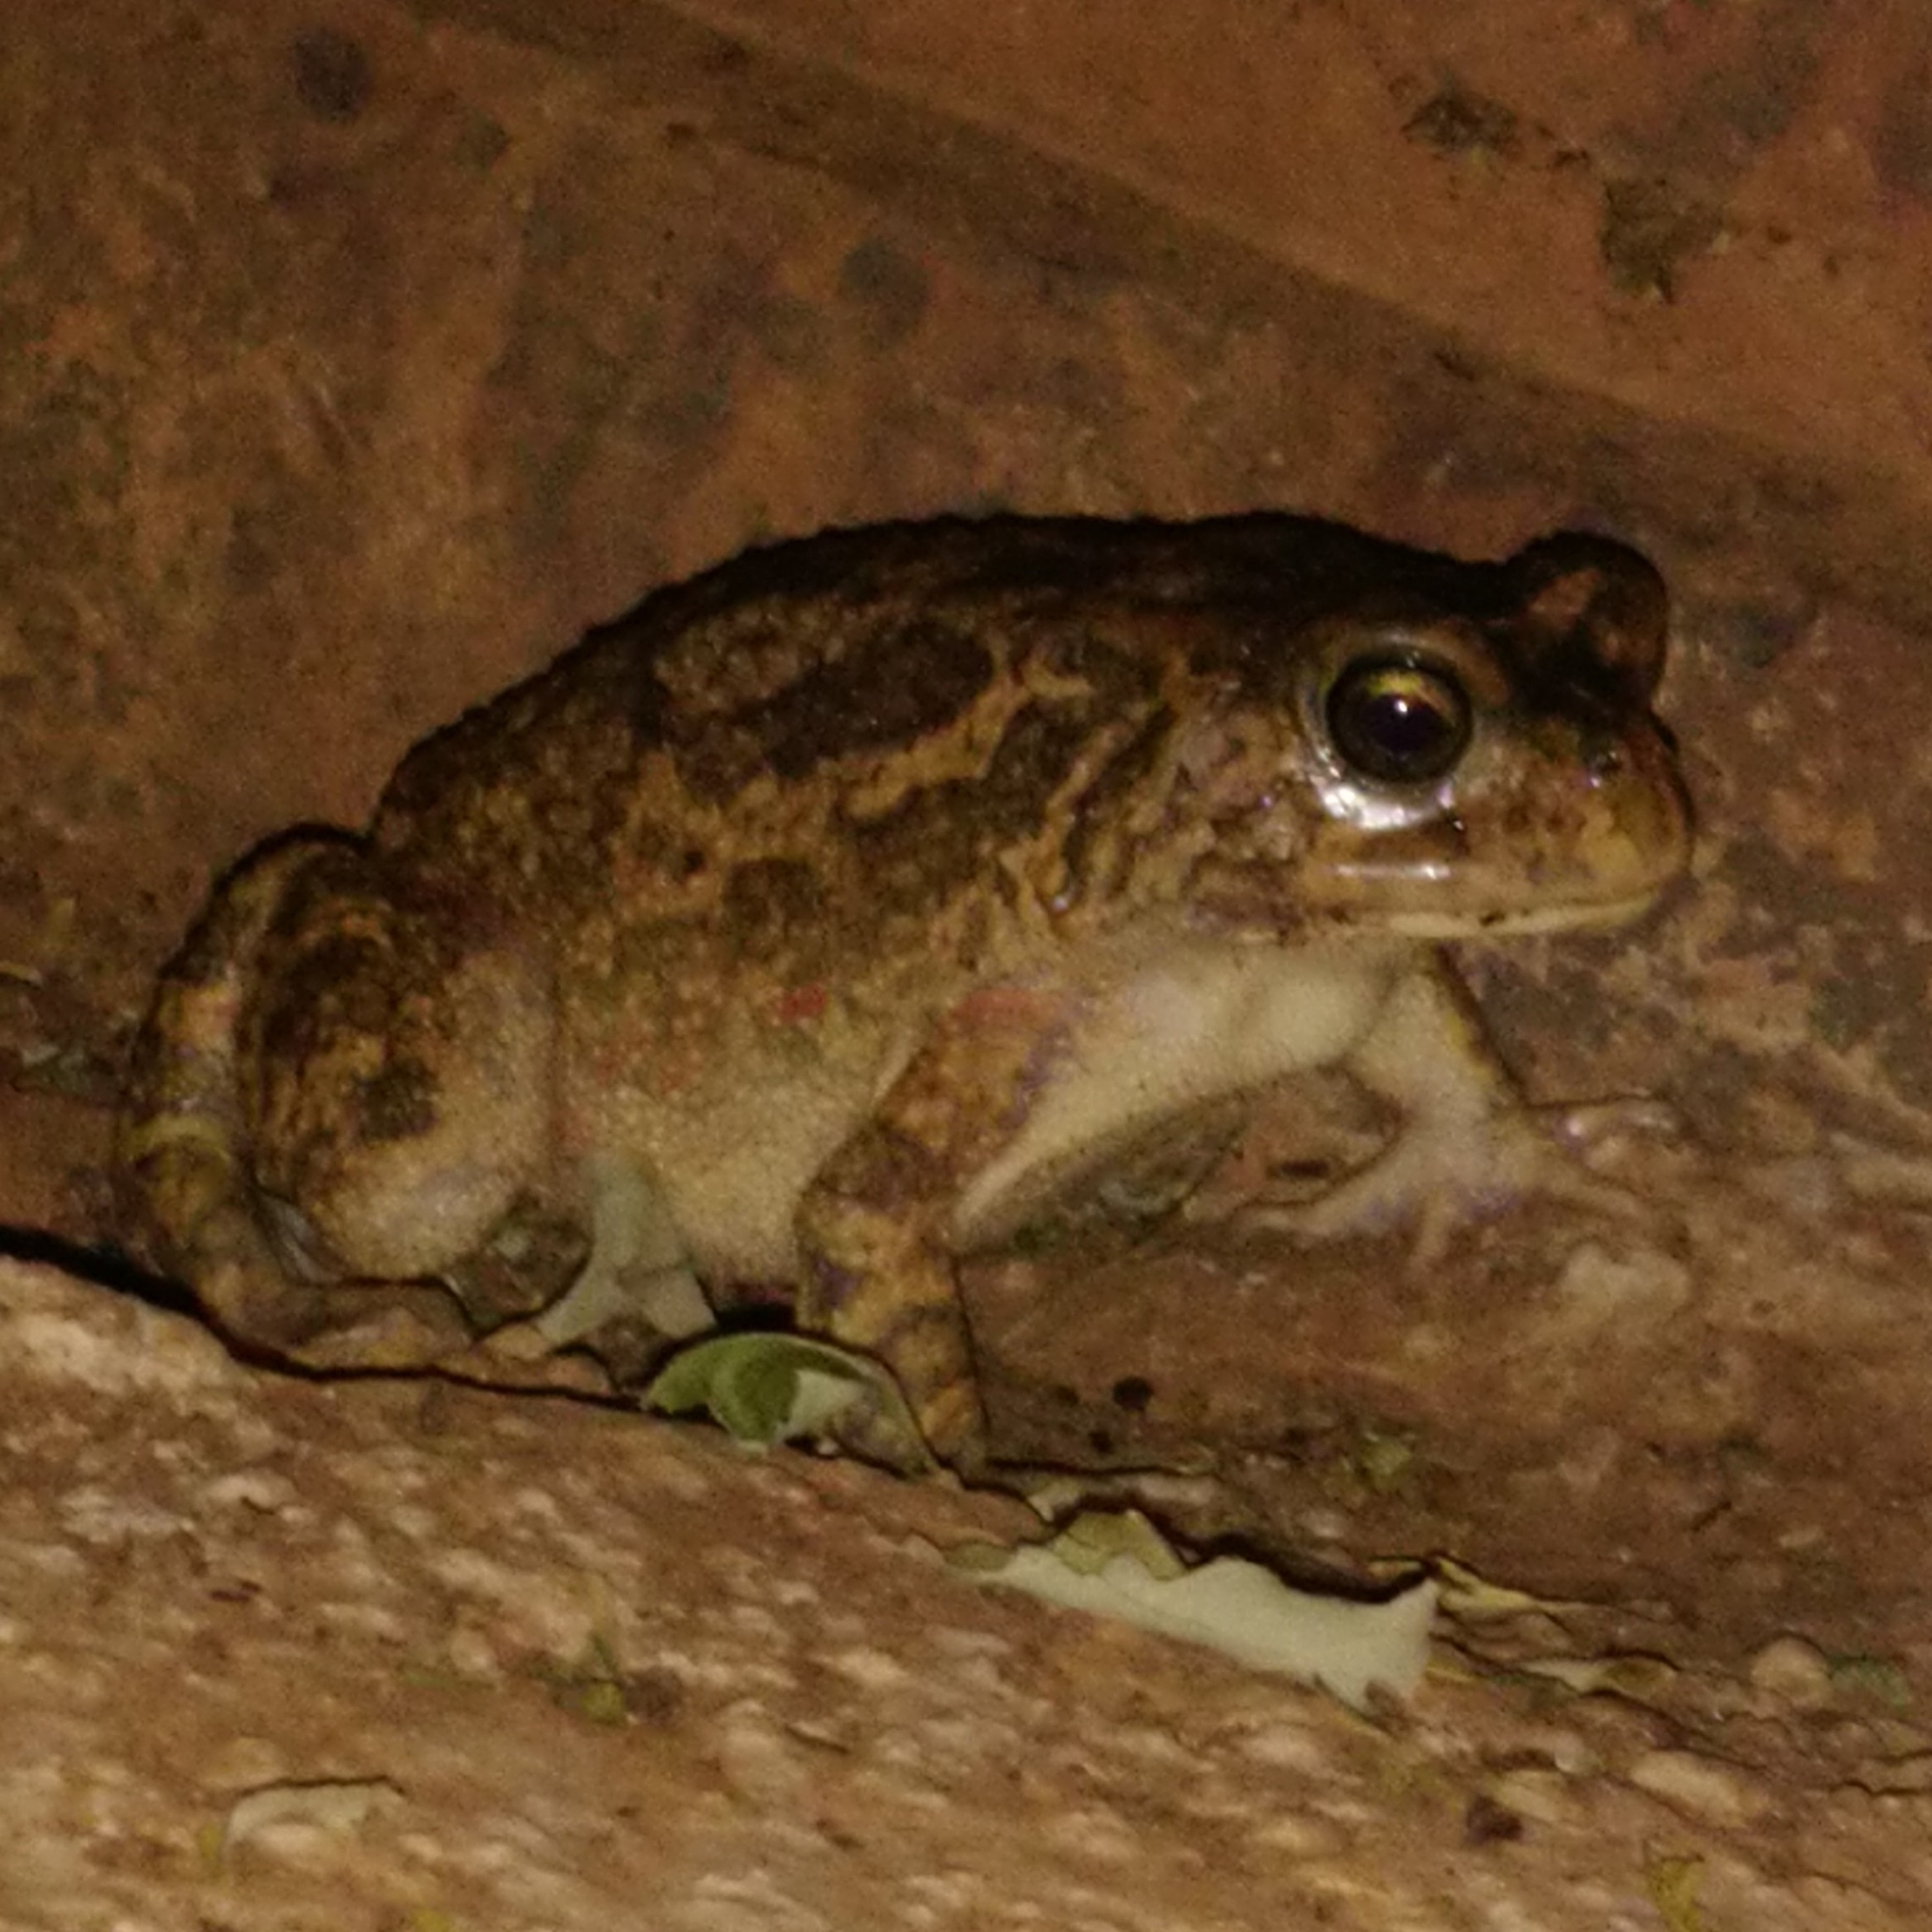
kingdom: Animalia
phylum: Chordata
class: Amphibia
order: Anura
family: Bufonidae
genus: Sclerophrys
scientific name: Sclerophrys gutturalis
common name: African common toad
